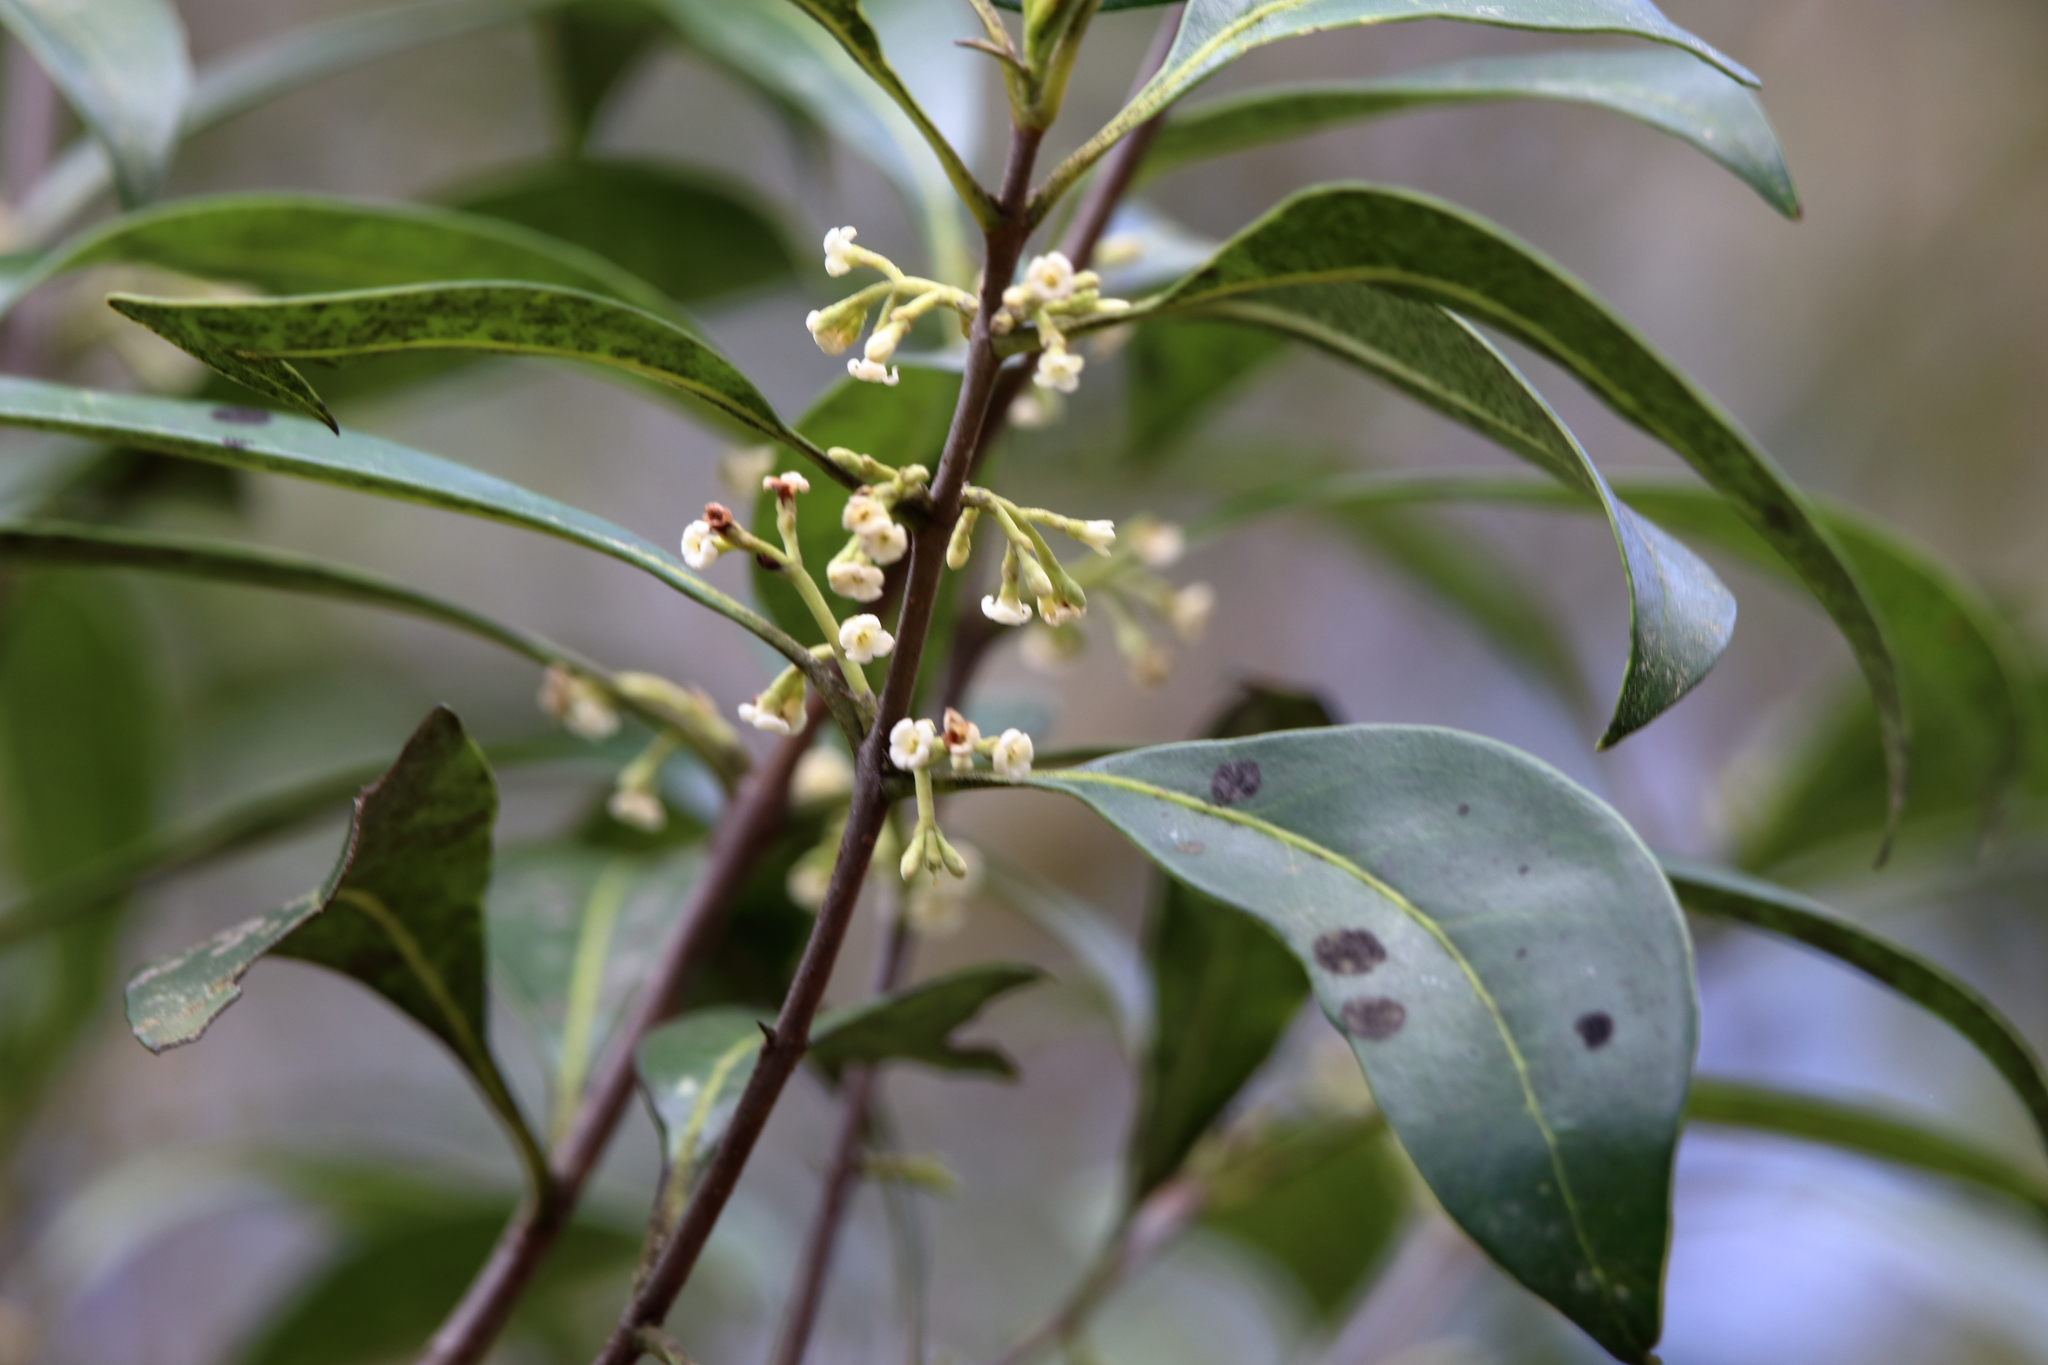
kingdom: Plantae
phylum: Tracheophyta
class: Magnoliopsida
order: Lamiales
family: Oleaceae
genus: Cartrema
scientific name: Cartrema americana
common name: Devilwood
